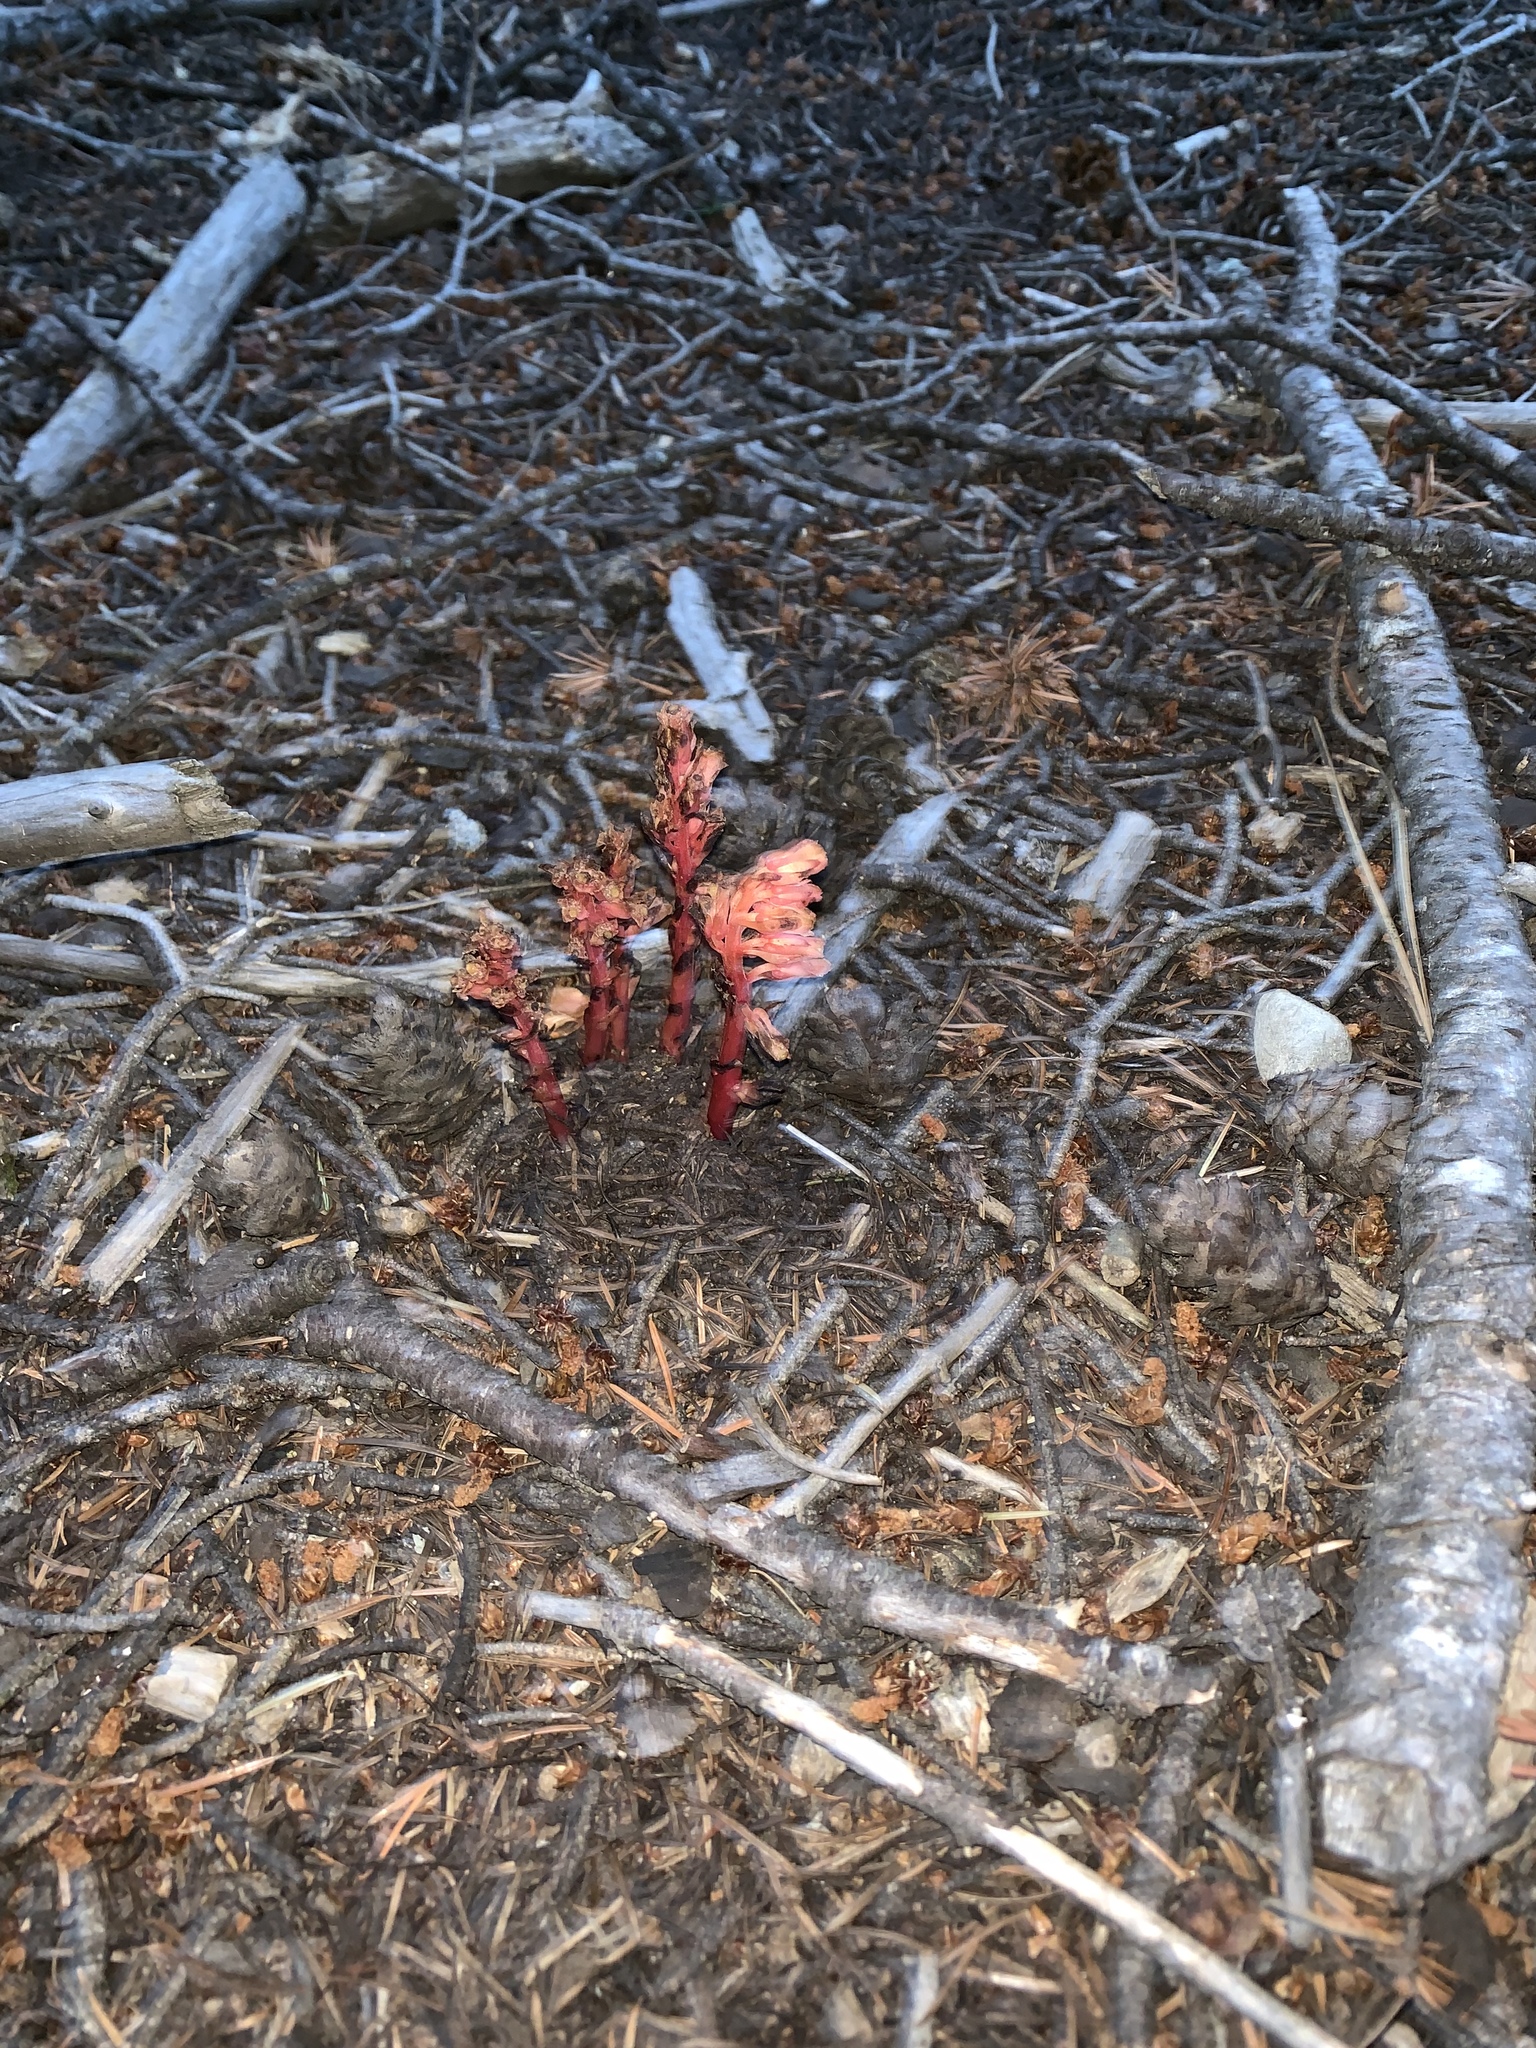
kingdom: Plantae
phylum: Tracheophyta
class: Magnoliopsida
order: Ericales
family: Ericaceae
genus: Hypopitys
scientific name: Hypopitys monotropa
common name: Yellow bird's-nest
